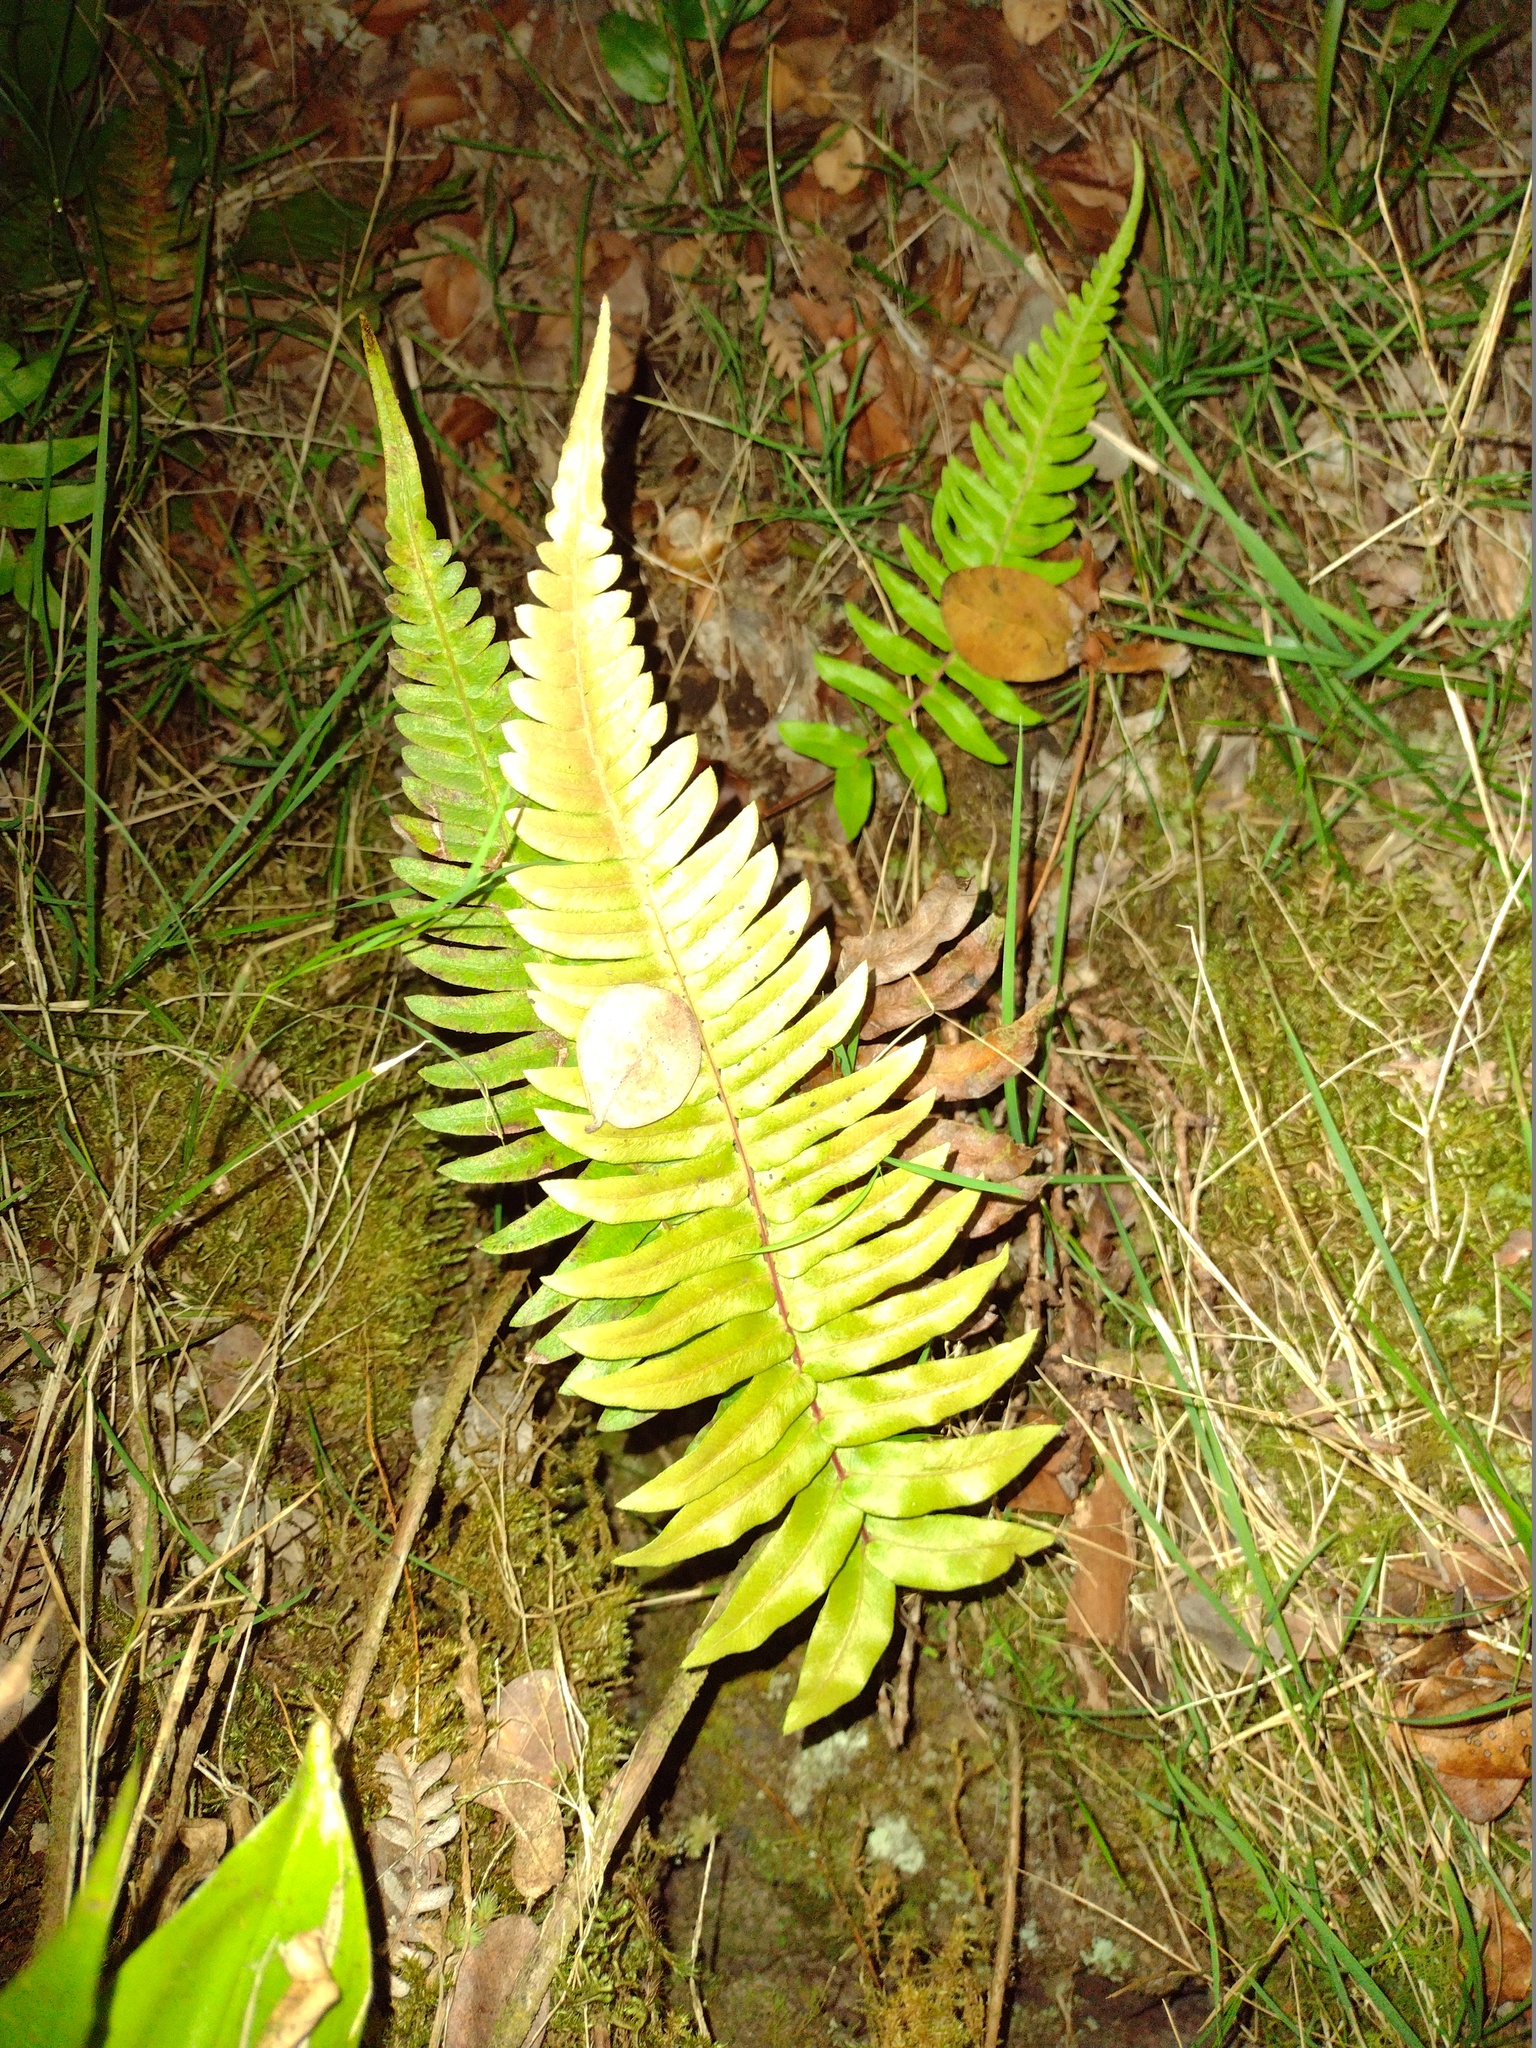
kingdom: Plantae
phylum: Tracheophyta
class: Polypodiopsida
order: Polypodiales
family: Blechnaceae
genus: Blechnum
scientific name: Blechnum appendiculatum
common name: Palm fern
